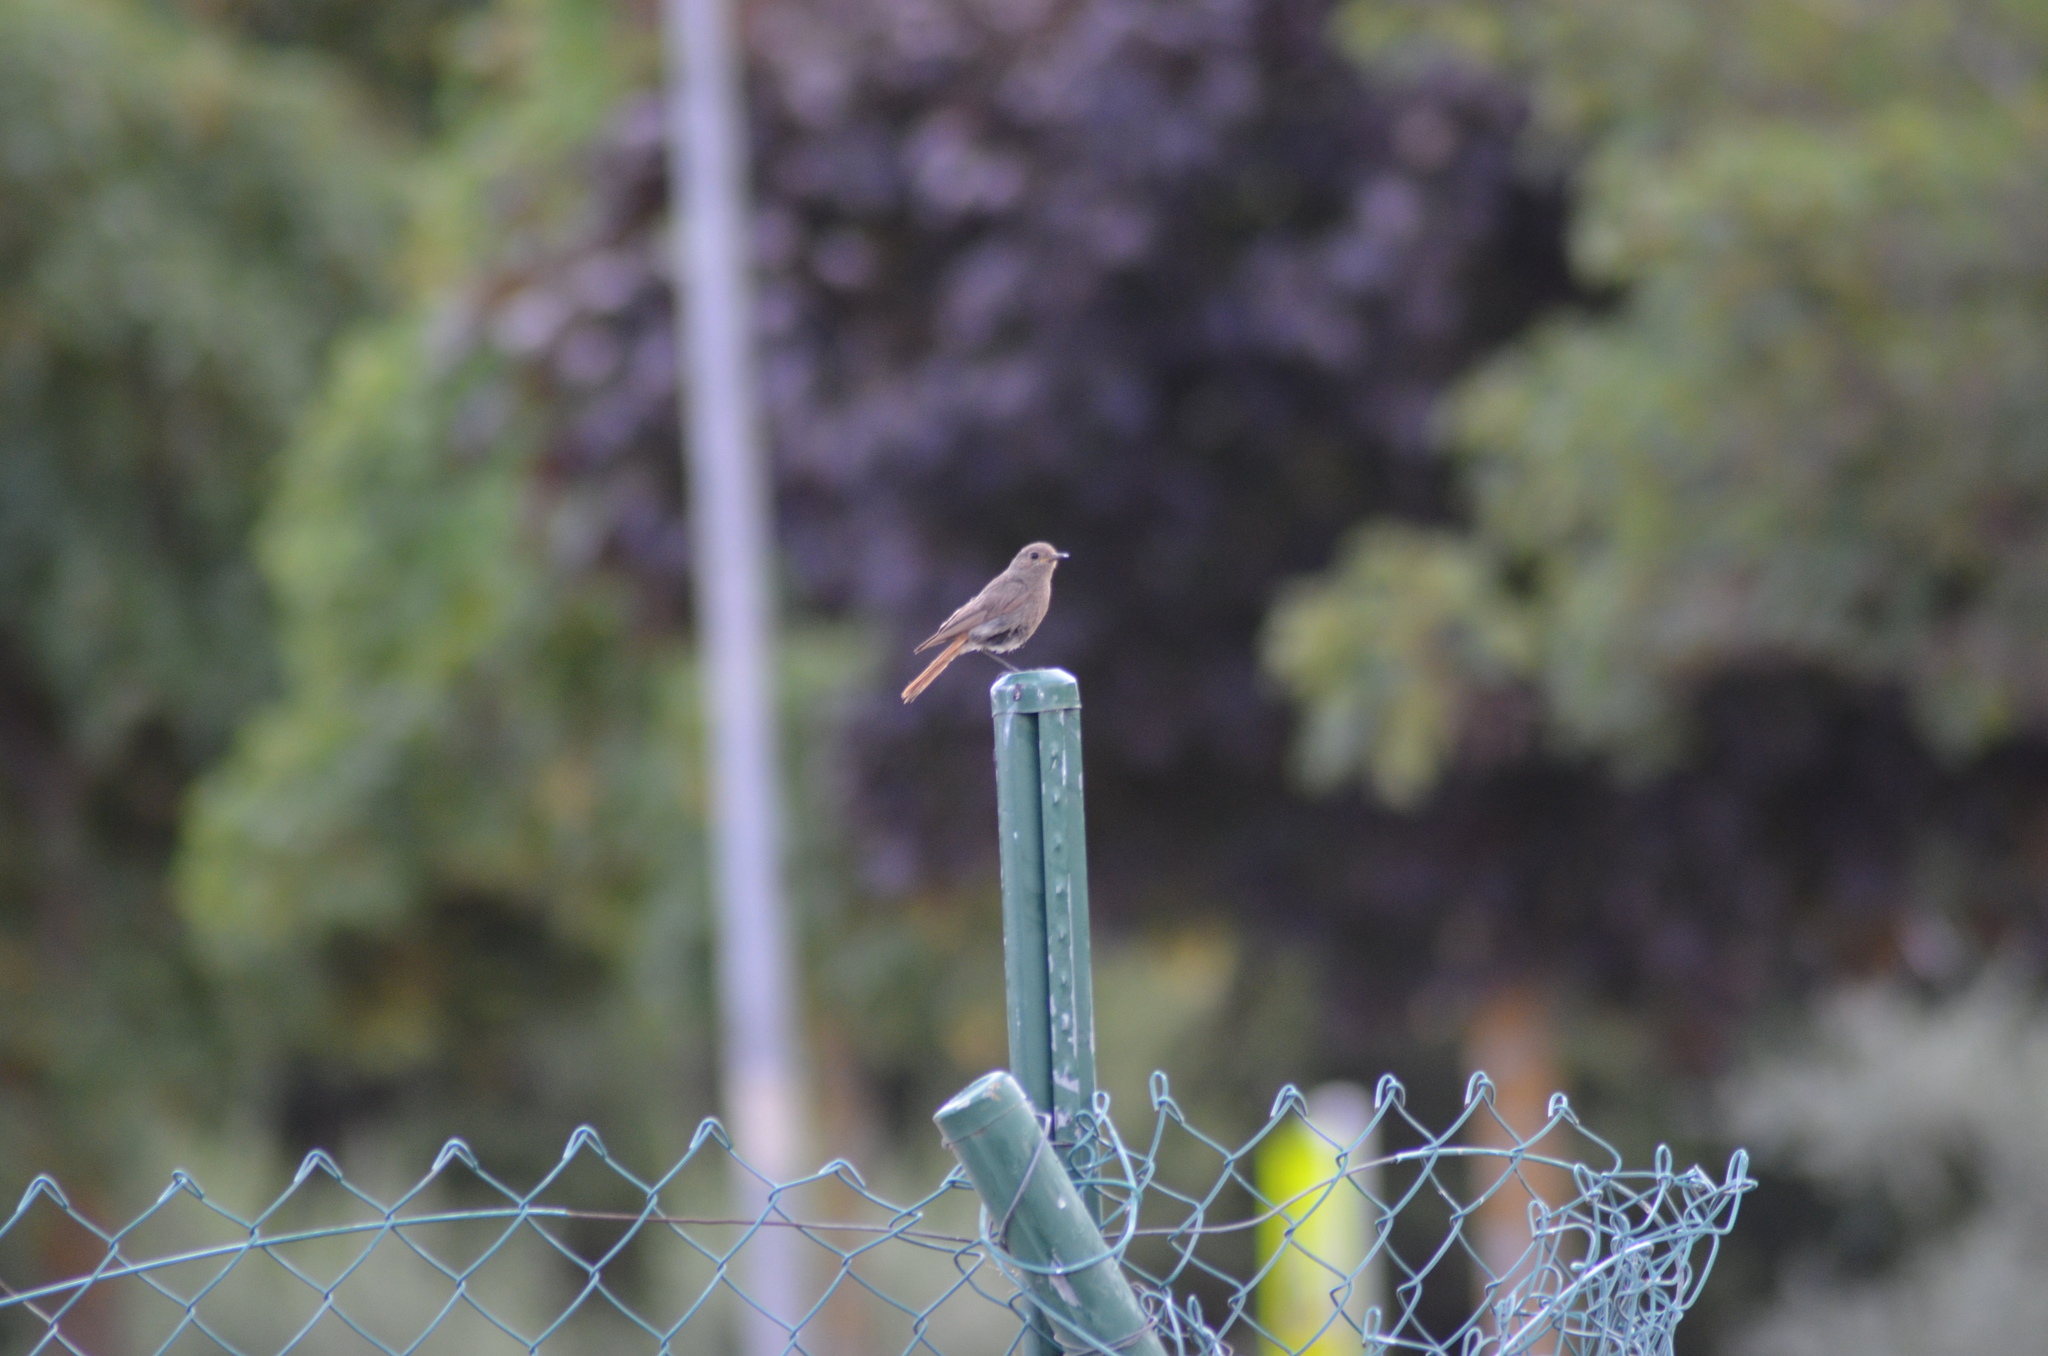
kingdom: Animalia
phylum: Chordata
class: Aves
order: Passeriformes
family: Muscicapidae
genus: Phoenicurus
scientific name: Phoenicurus ochruros
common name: Black redstart
